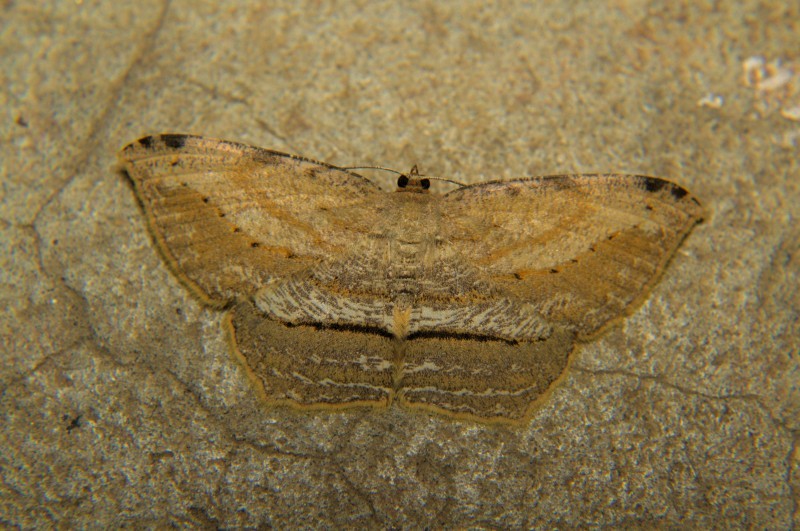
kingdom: Animalia
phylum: Arthropoda
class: Insecta
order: Lepidoptera
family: Geometridae
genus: Calletaera
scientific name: Calletaera postvittata
